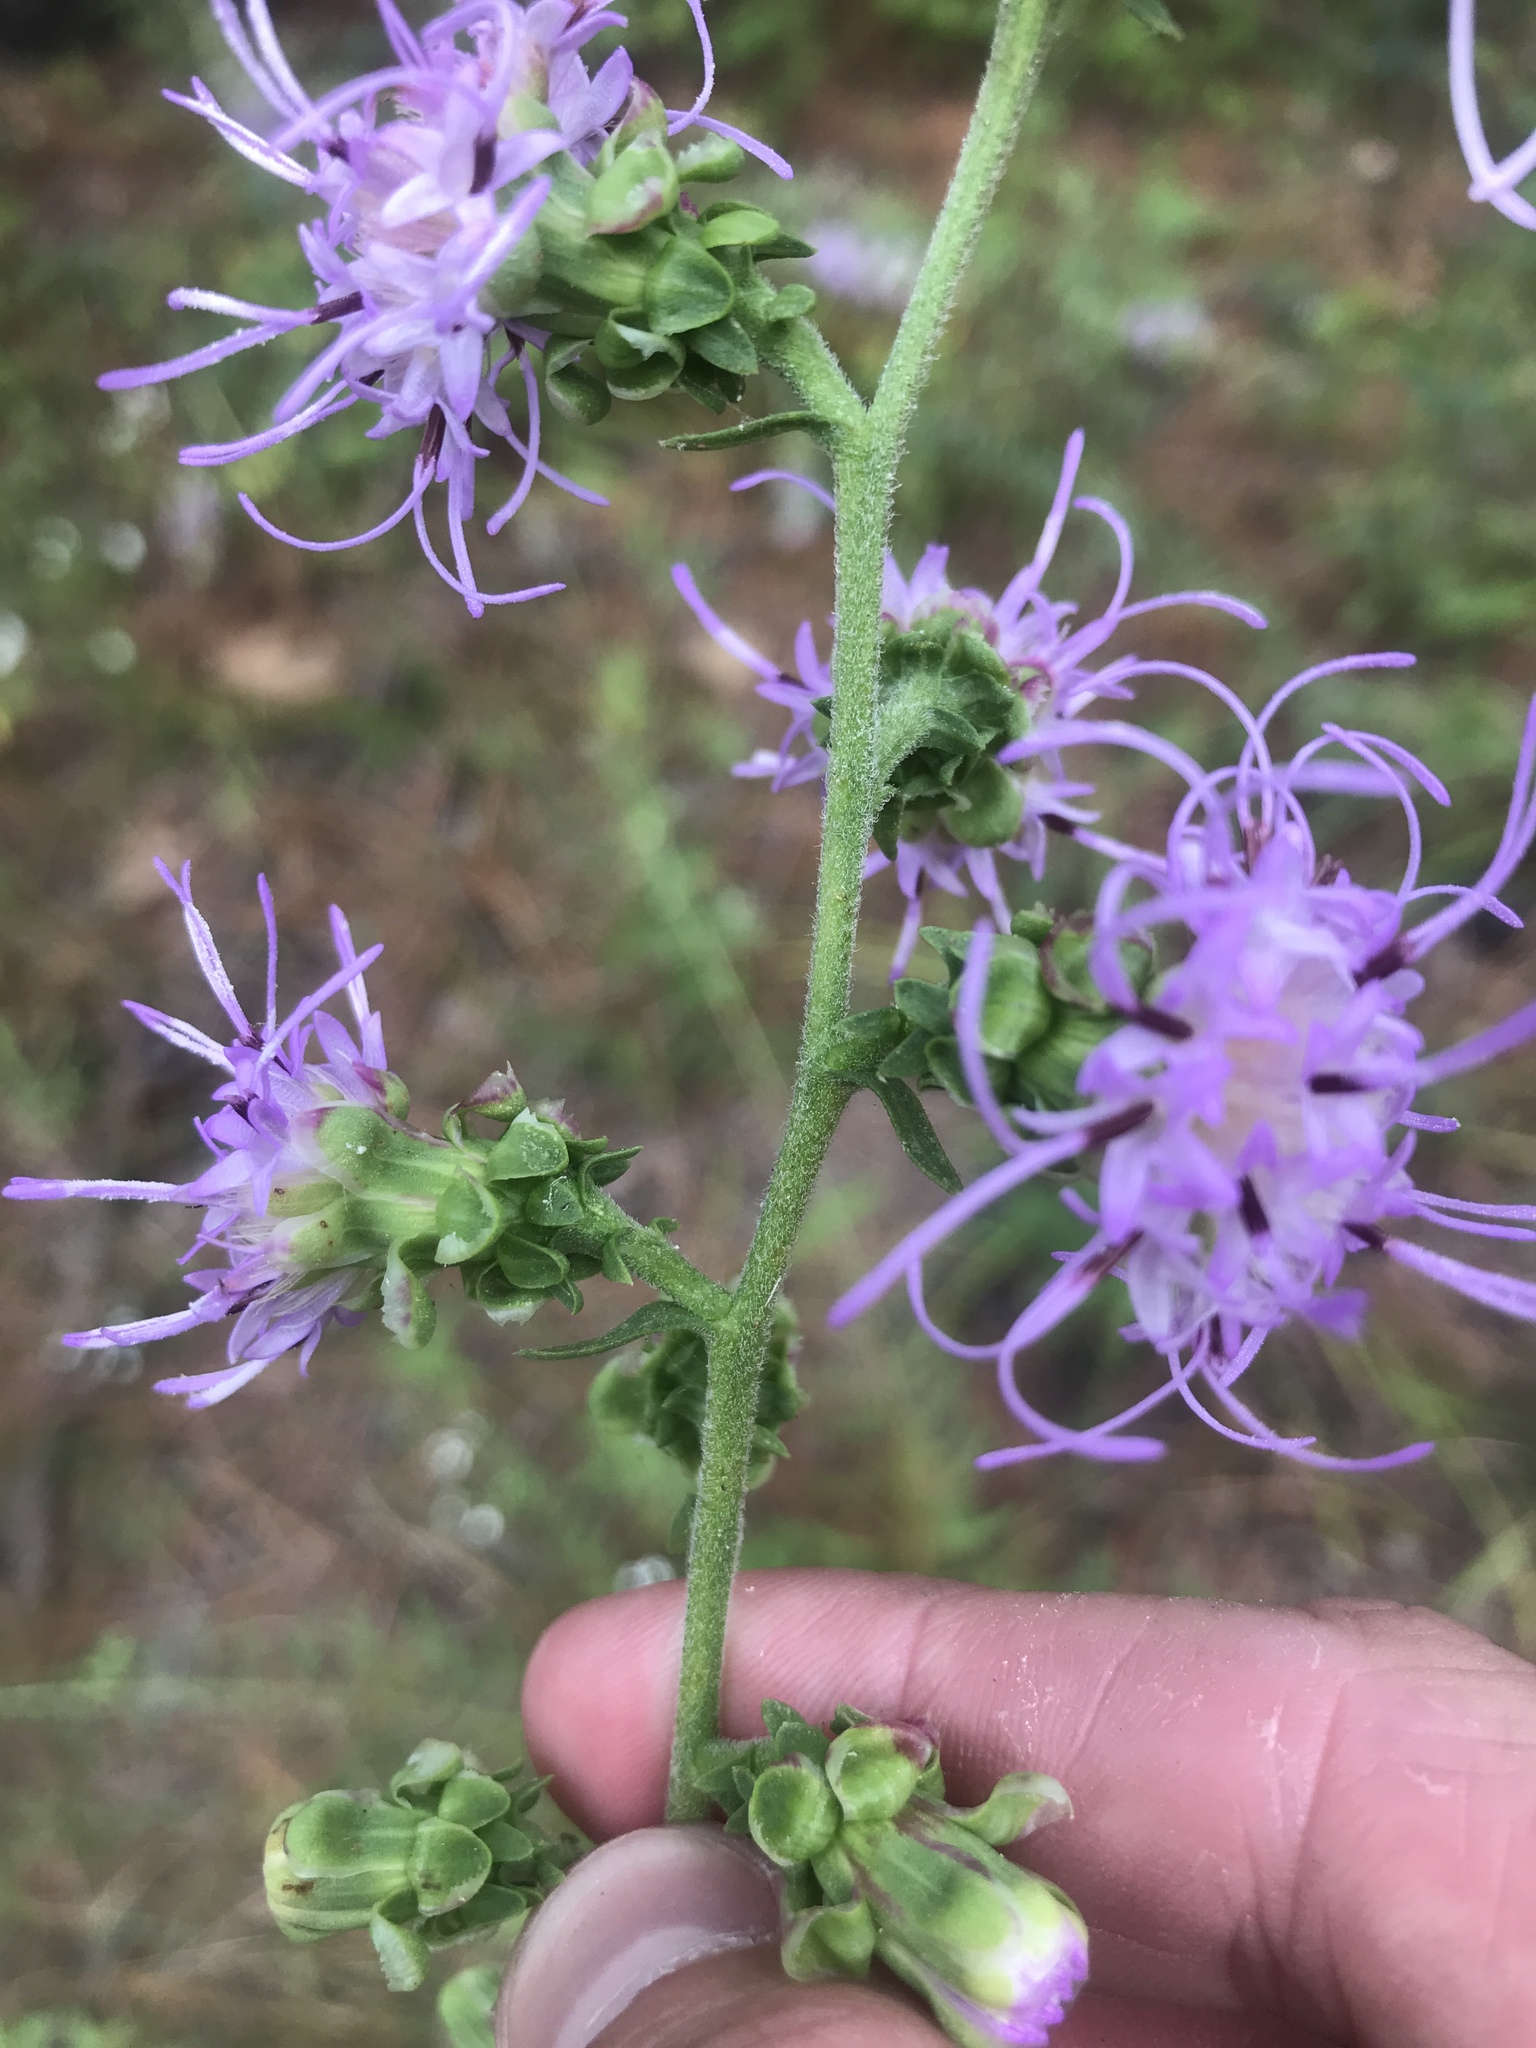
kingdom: Plantae
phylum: Tracheophyta
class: Magnoliopsida
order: Asterales
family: Asteraceae
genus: Liatris
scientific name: Liatris aspera
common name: Lacerate blazing-star
